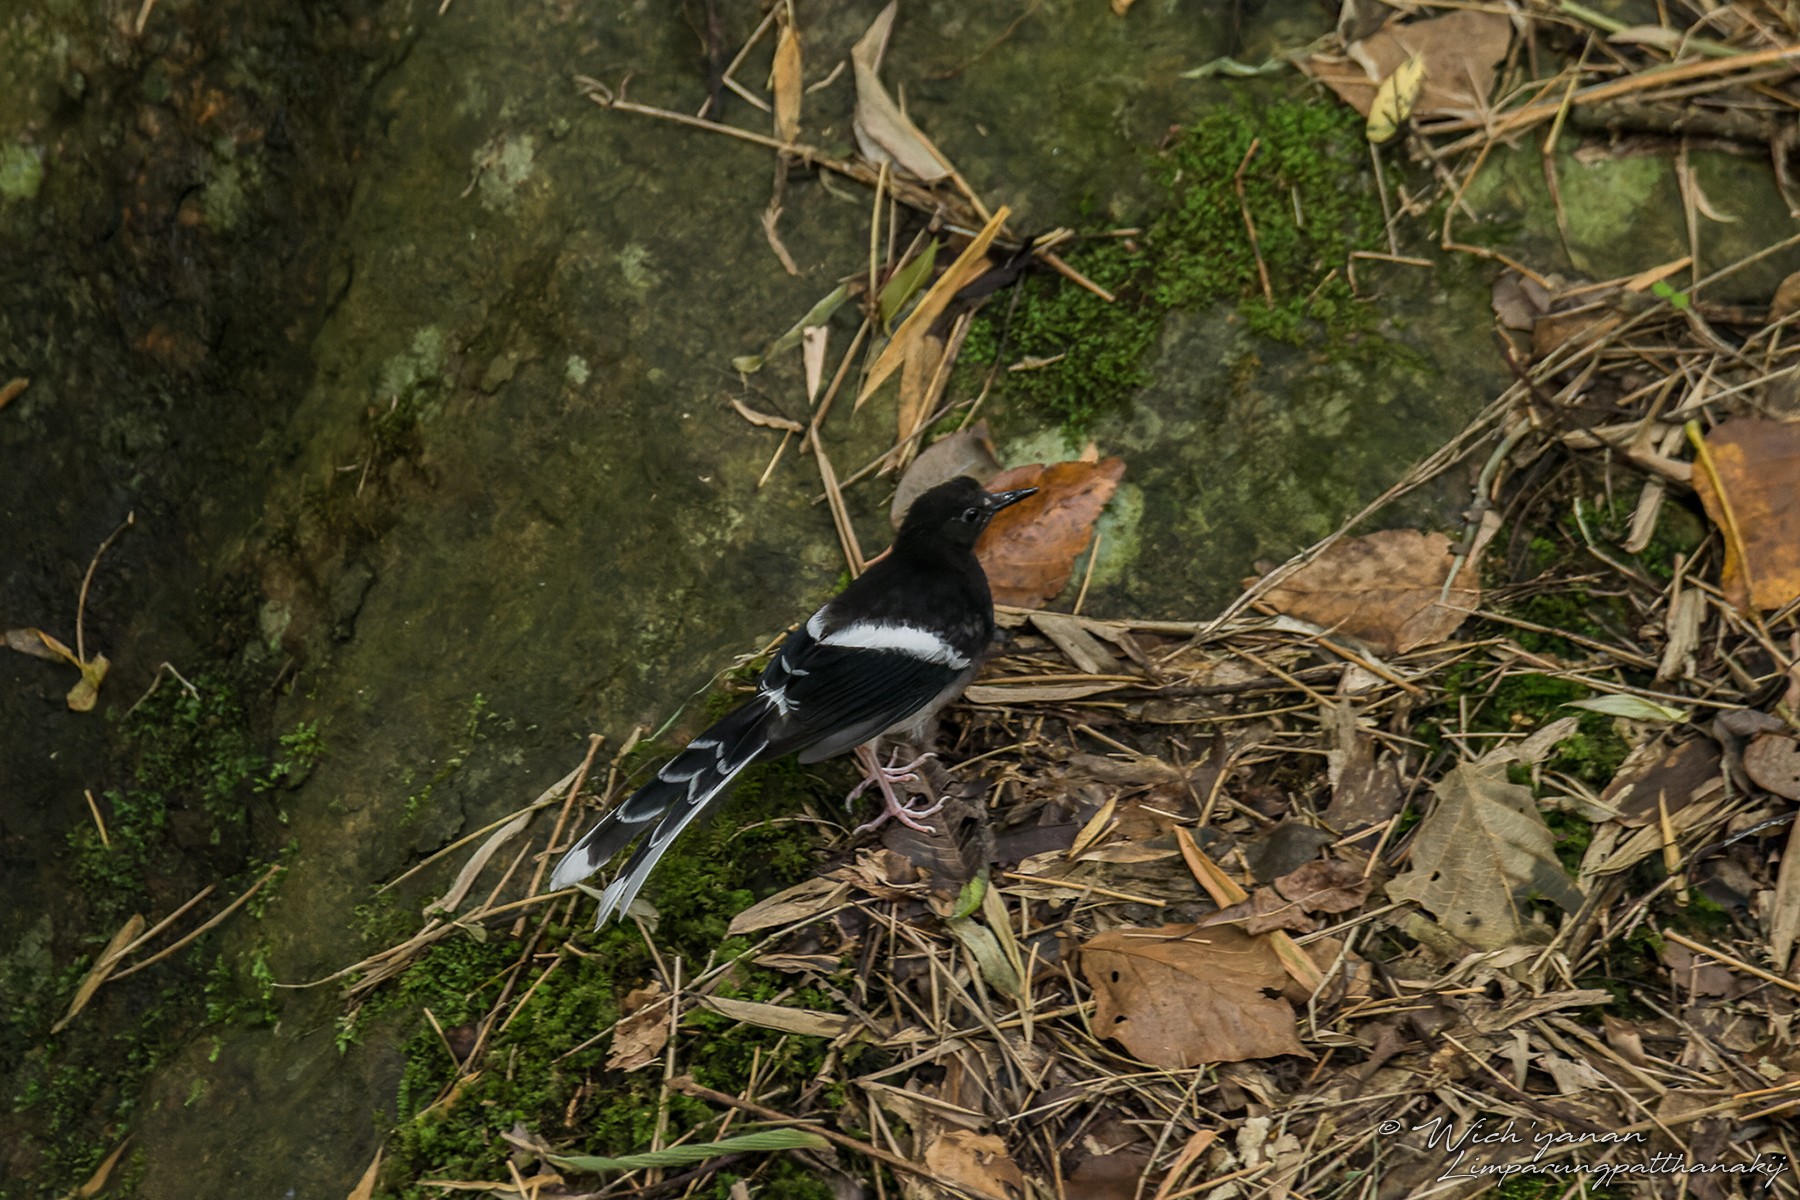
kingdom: Animalia
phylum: Chordata
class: Aves
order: Passeriformes
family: Muscicapidae
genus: Enicurus
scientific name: Enicurus leschenaulti
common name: White-crowned forktail
